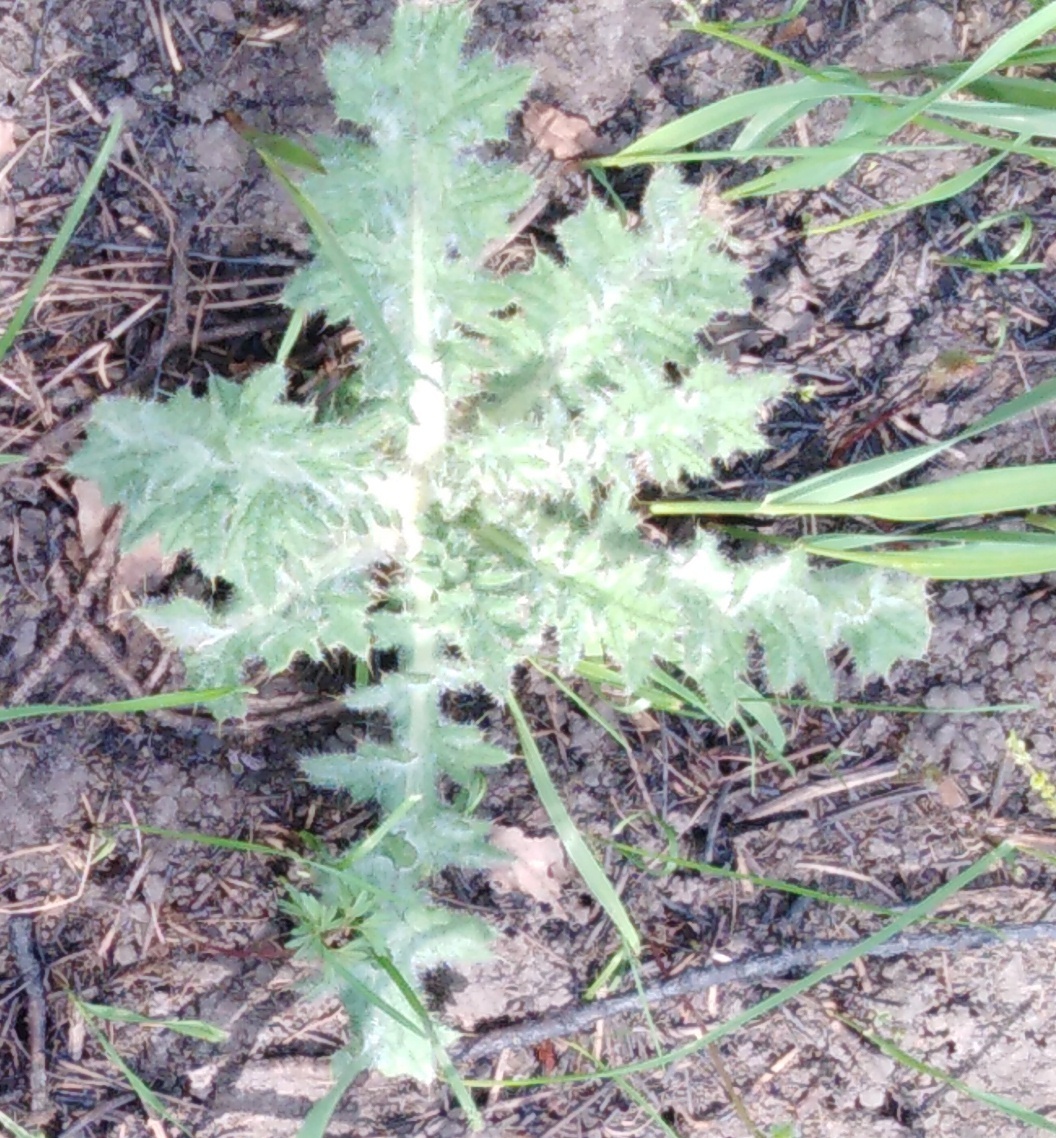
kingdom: Plantae
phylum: Tracheophyta
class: Magnoliopsida
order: Asterales
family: Asteraceae
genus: Cirsium
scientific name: Cirsium vulgare
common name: Bull thistle
